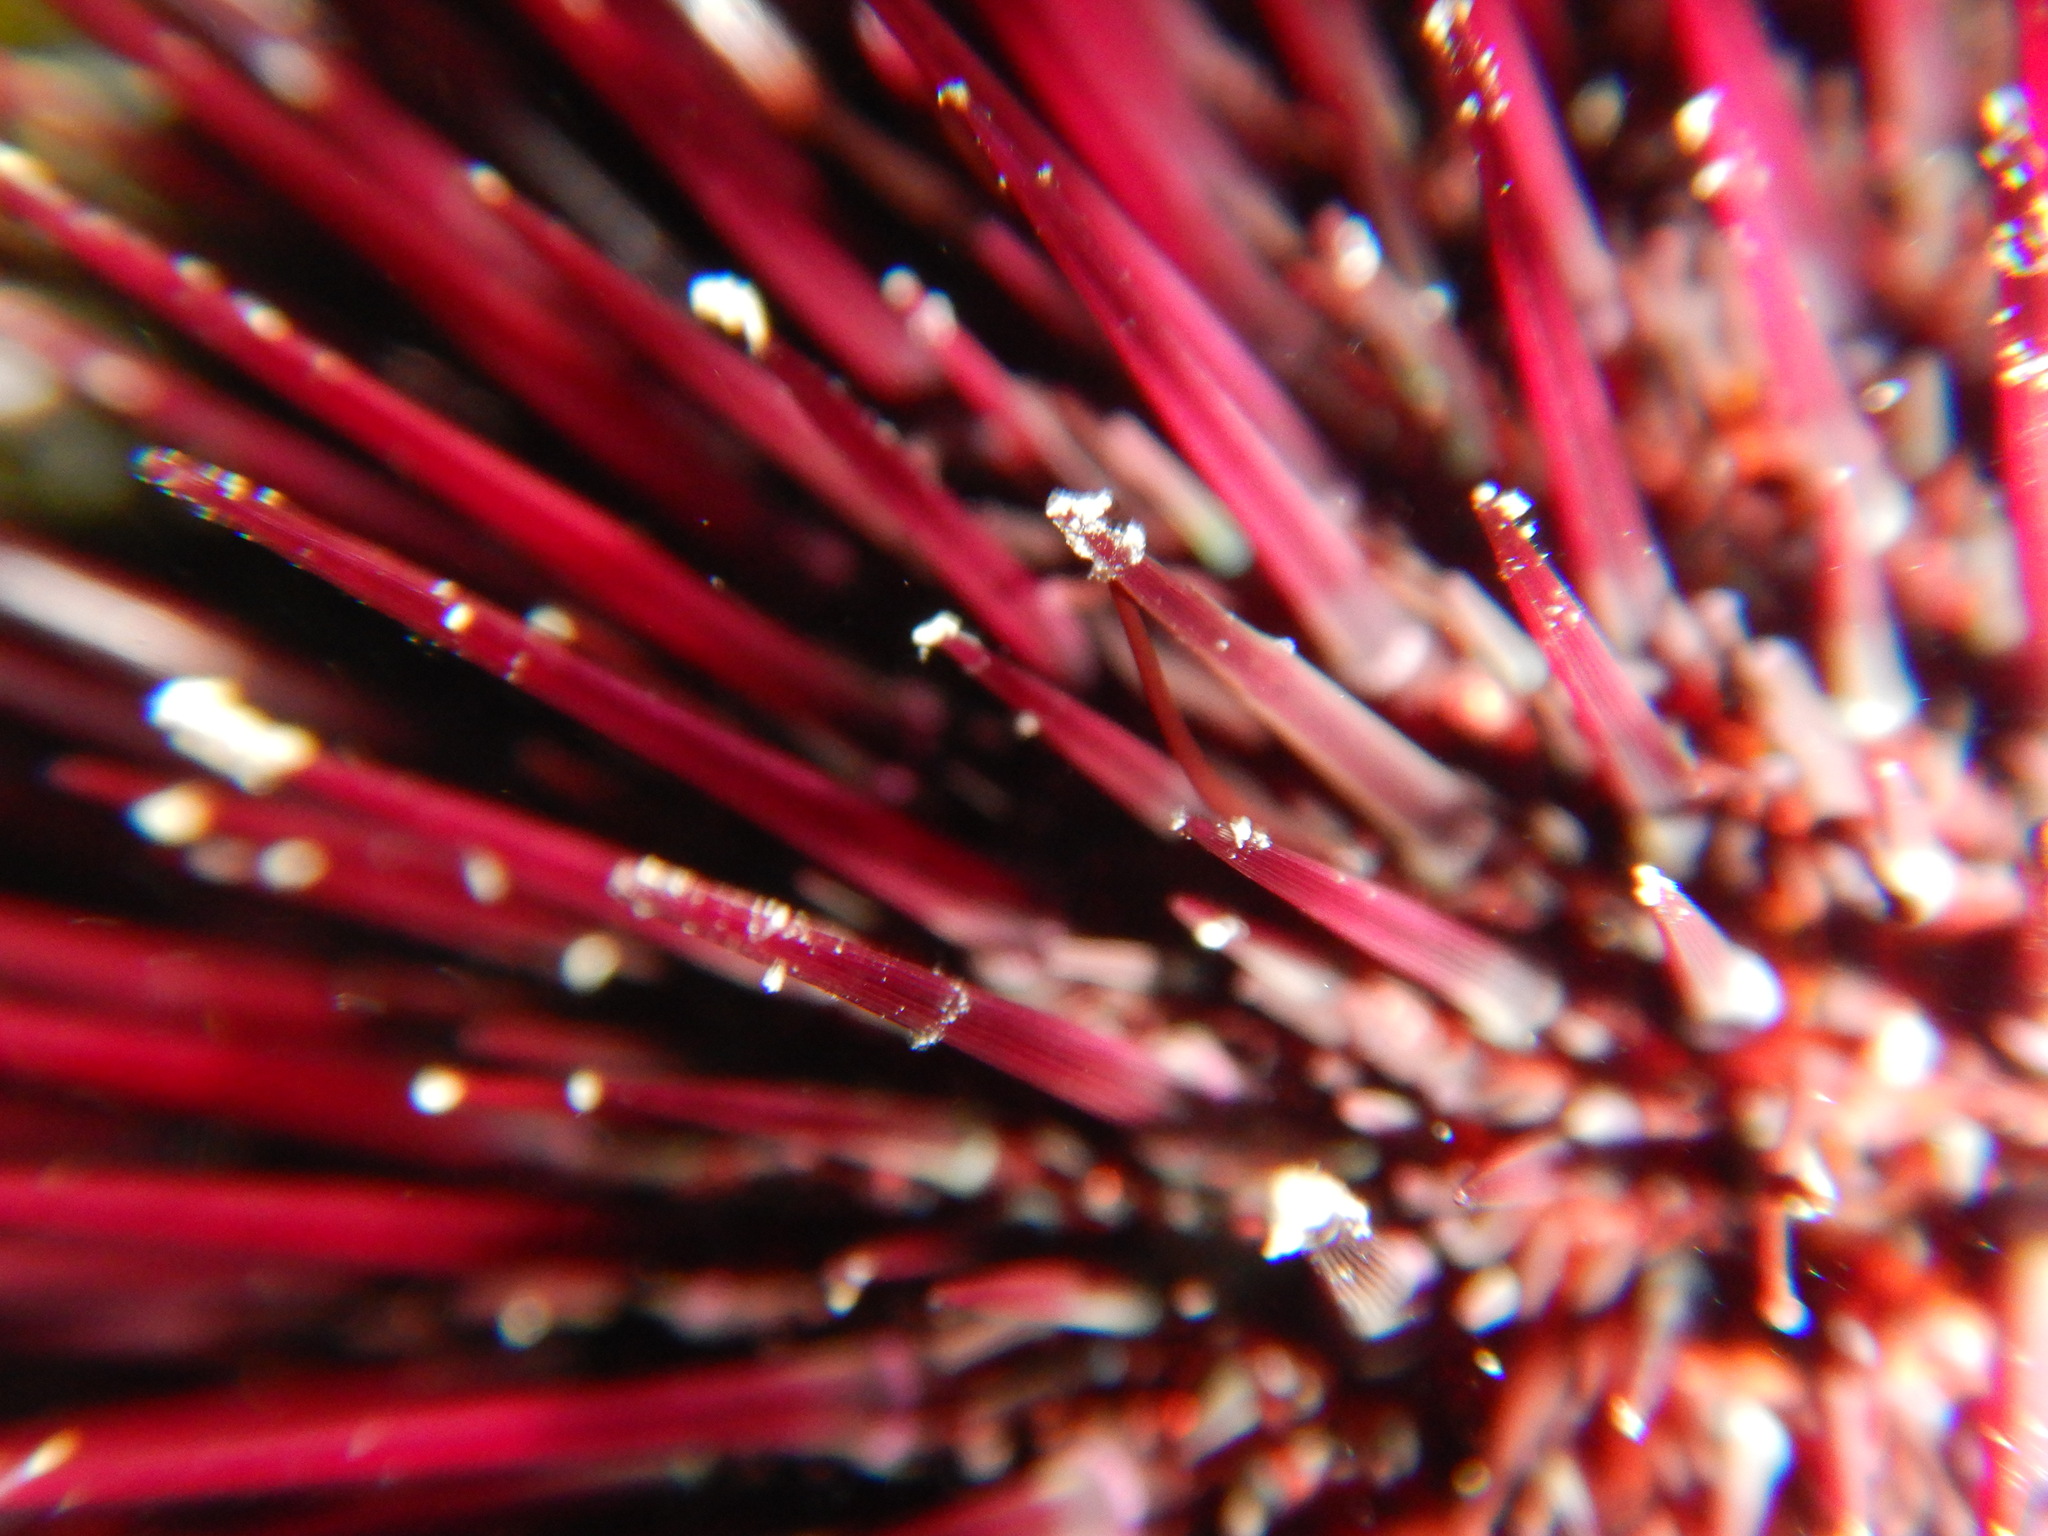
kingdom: Animalia
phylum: Echinodermata
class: Echinoidea
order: Camarodonta
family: Parechinidae
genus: Paracentrotus
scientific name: Paracentrotus lividus
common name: Purple sea urchin
